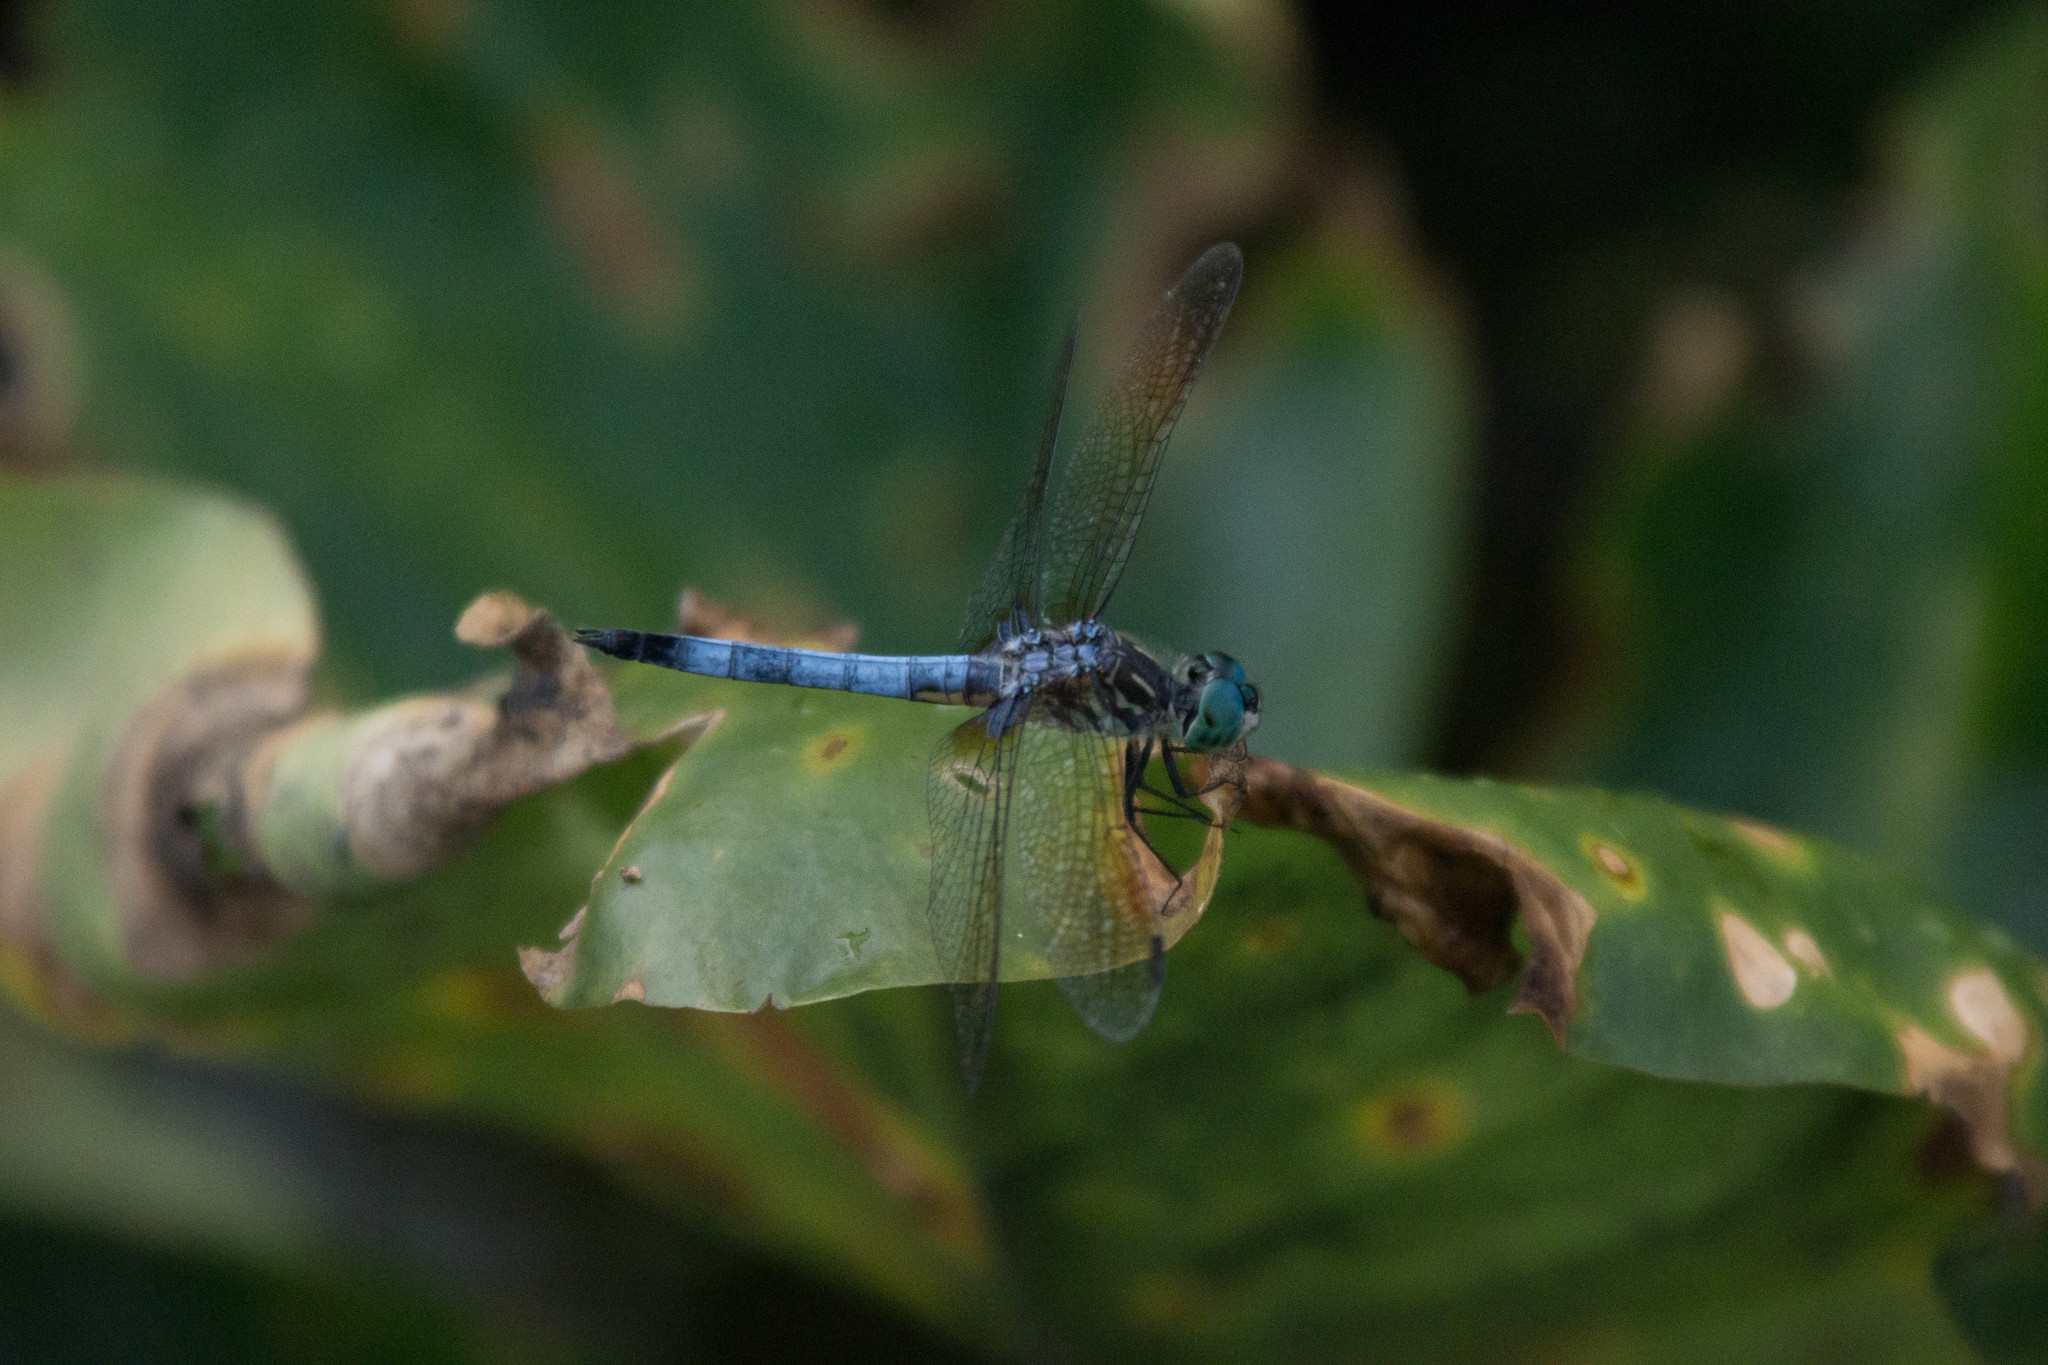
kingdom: Animalia
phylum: Arthropoda
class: Insecta
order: Odonata
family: Libellulidae
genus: Pachydiplax
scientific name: Pachydiplax longipennis
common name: Blue dasher
